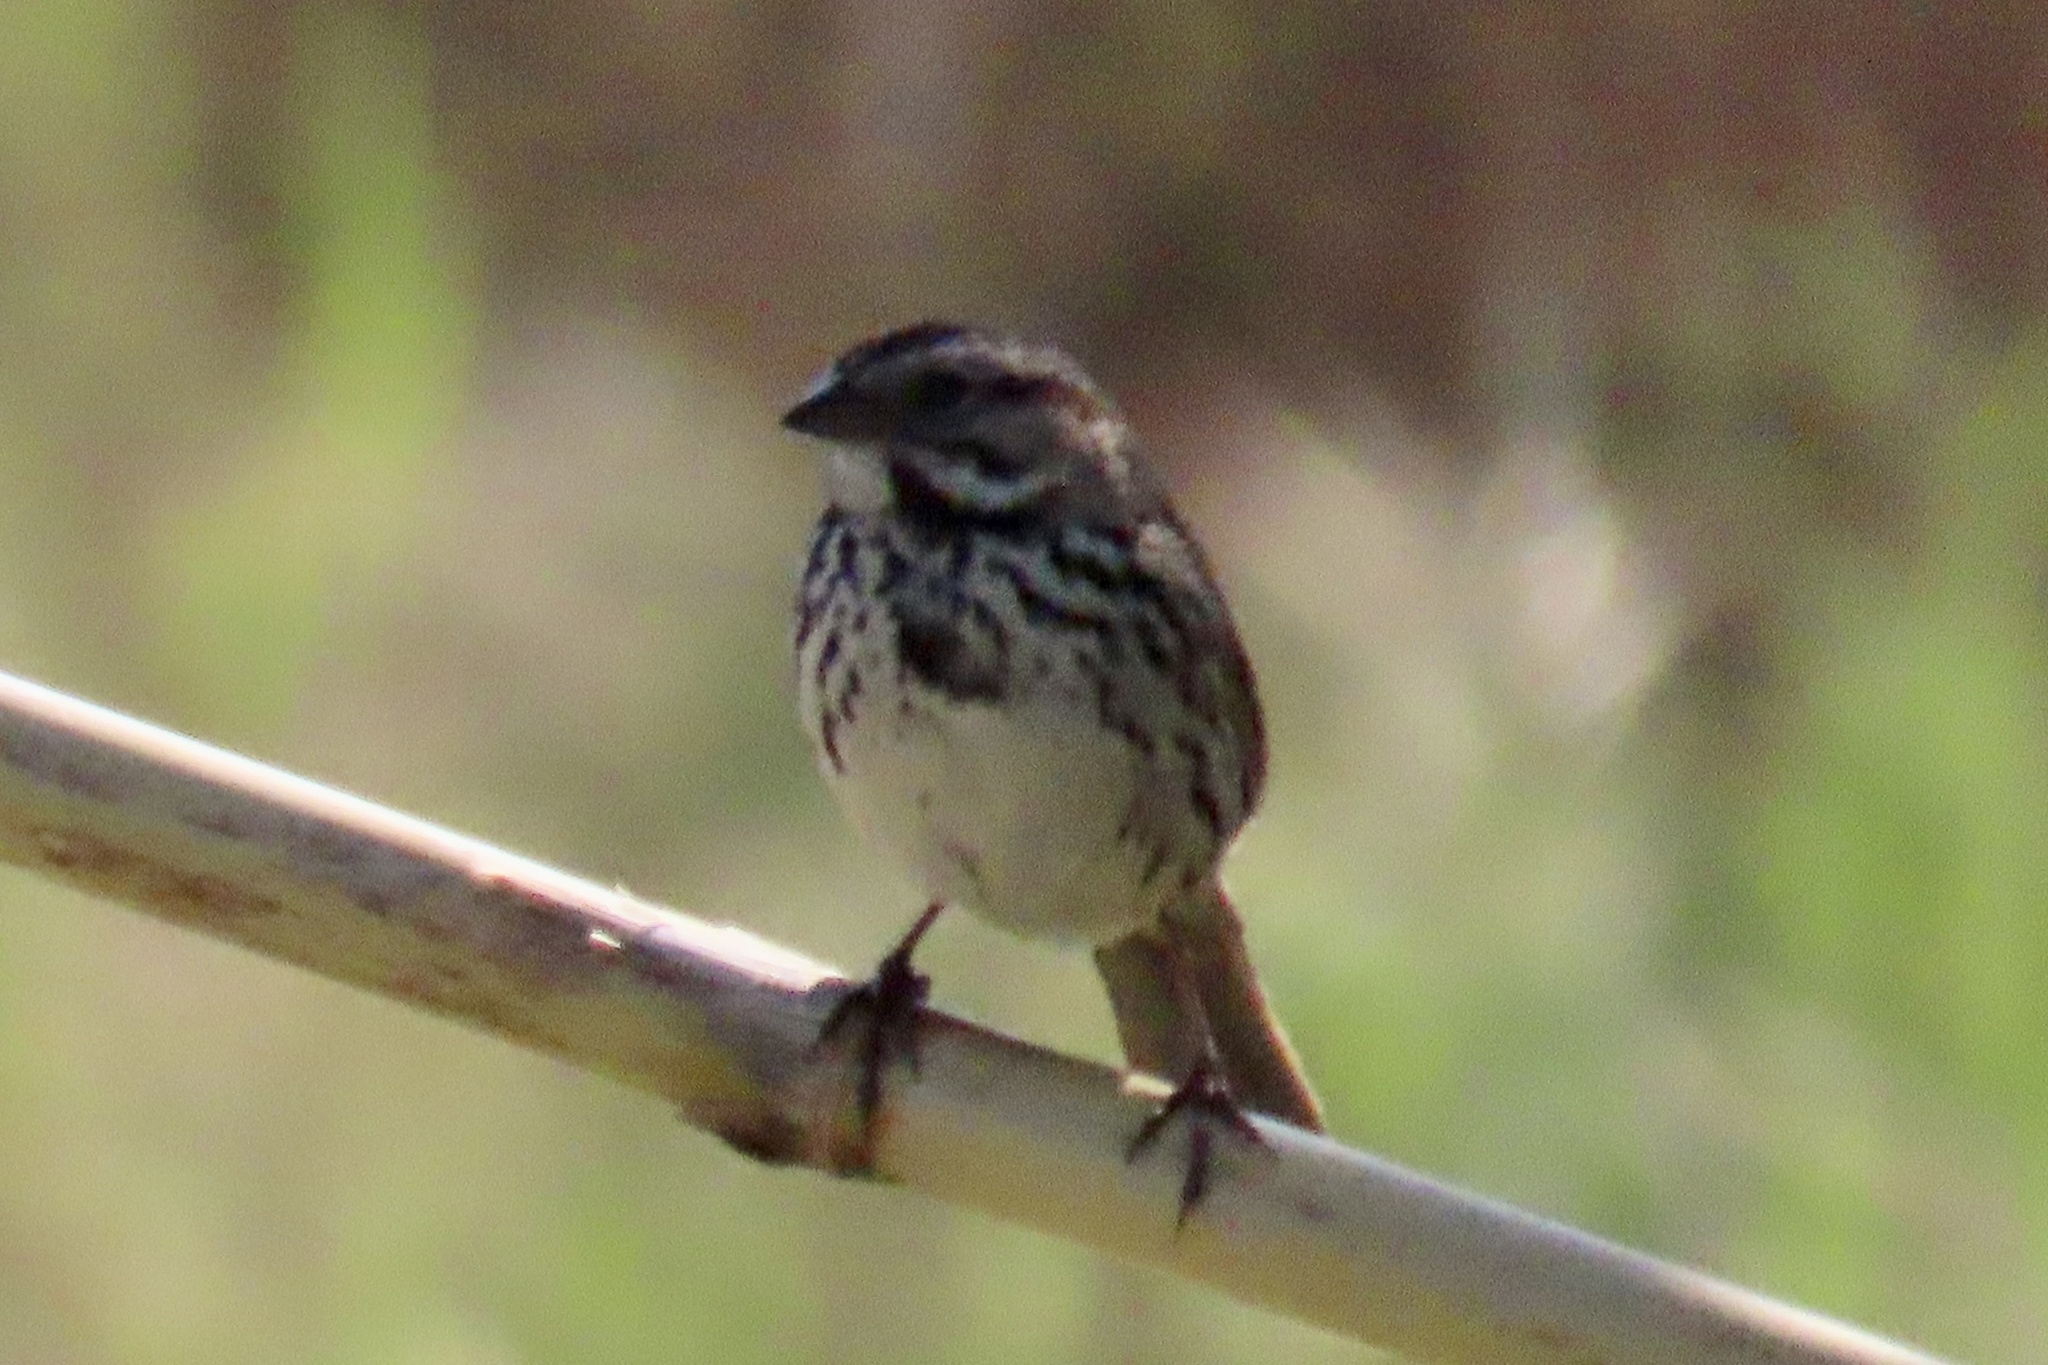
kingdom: Animalia
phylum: Chordata
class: Aves
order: Passeriformes
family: Passerellidae
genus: Melospiza
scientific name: Melospiza melodia
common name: Song sparrow
